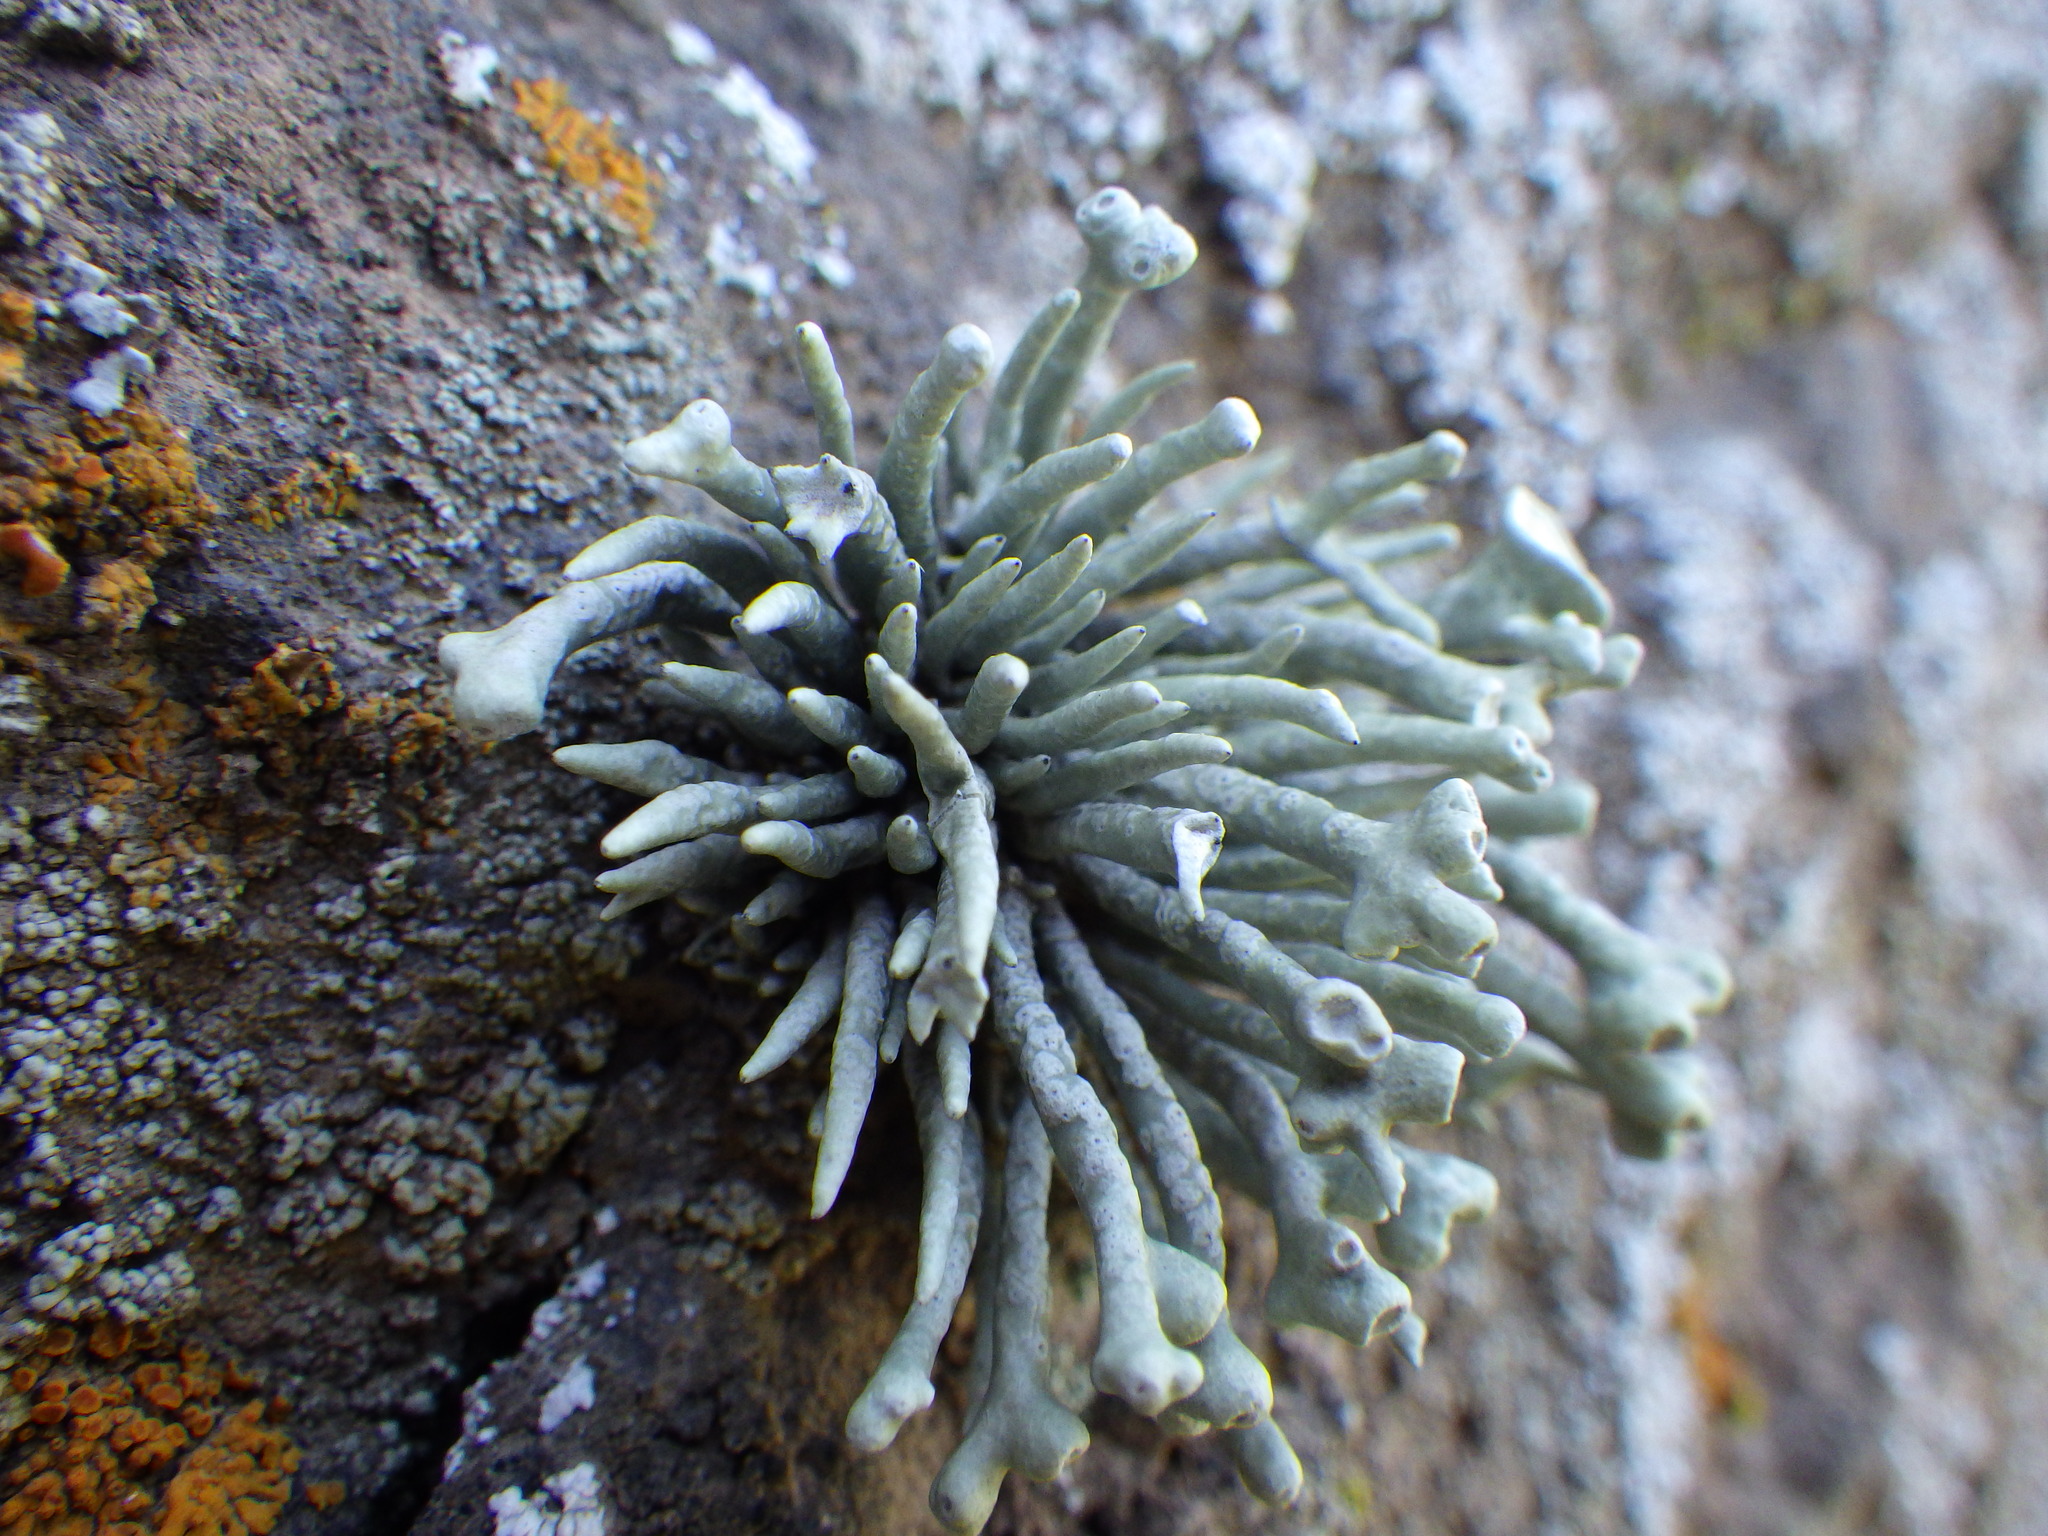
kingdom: Fungi
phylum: Ascomycota
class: Lecanoromycetes
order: Lecanorales
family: Ramalinaceae
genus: Niebla
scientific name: Niebla combeoides
